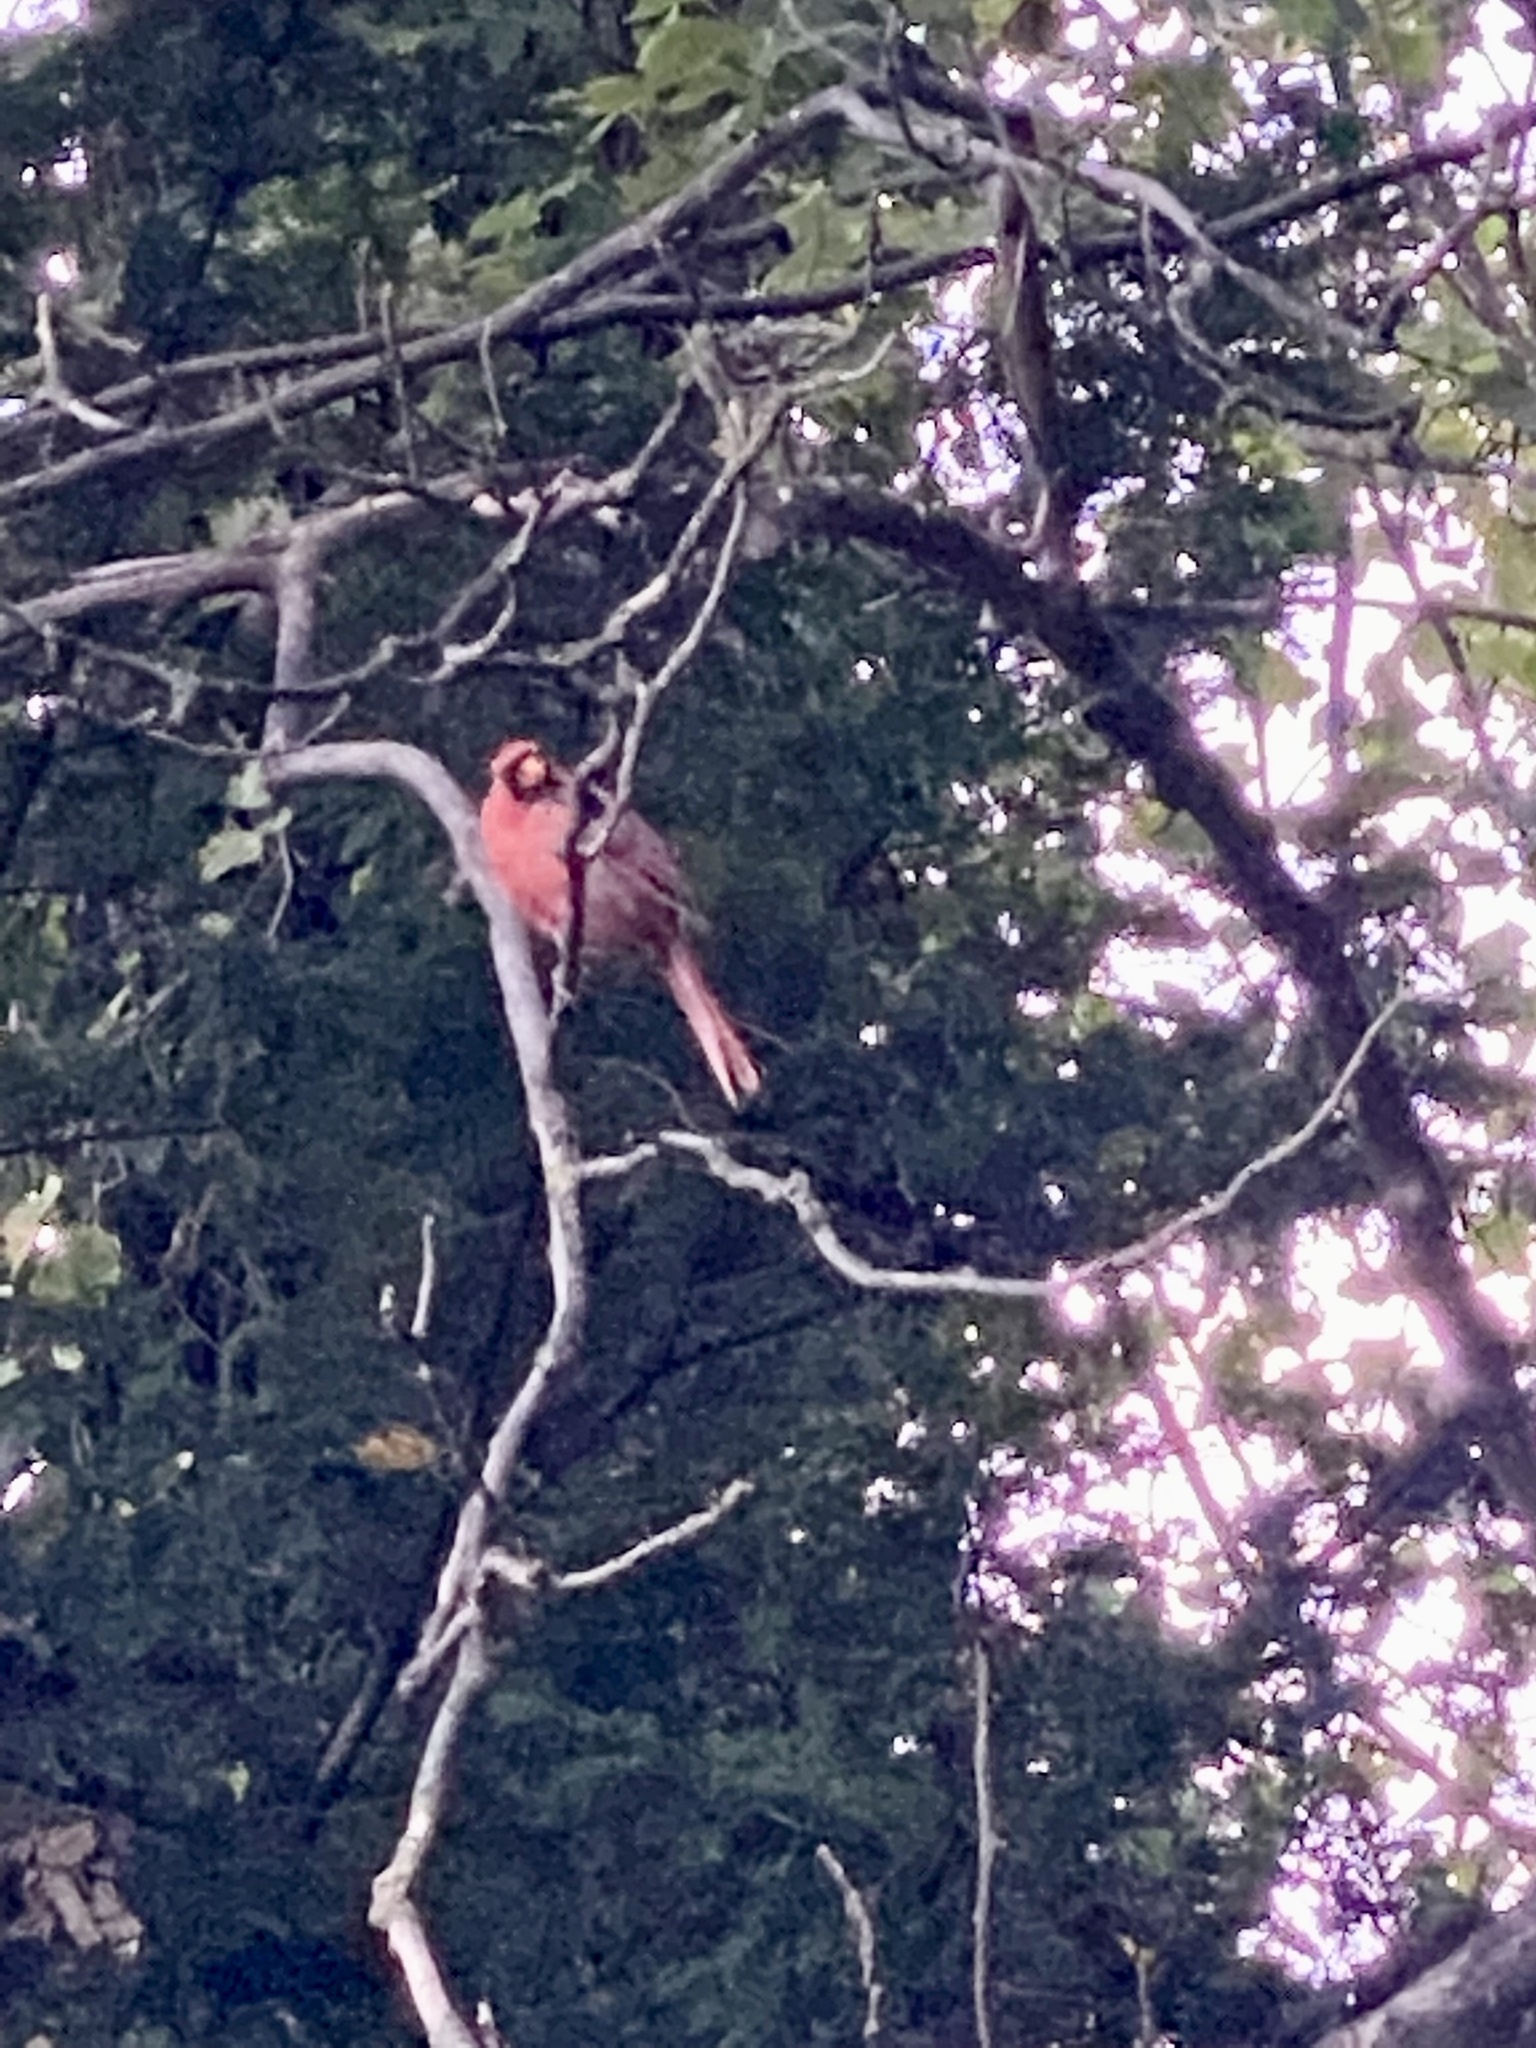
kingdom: Animalia
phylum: Chordata
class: Aves
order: Passeriformes
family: Cardinalidae
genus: Cardinalis
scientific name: Cardinalis cardinalis
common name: Northern cardinal
